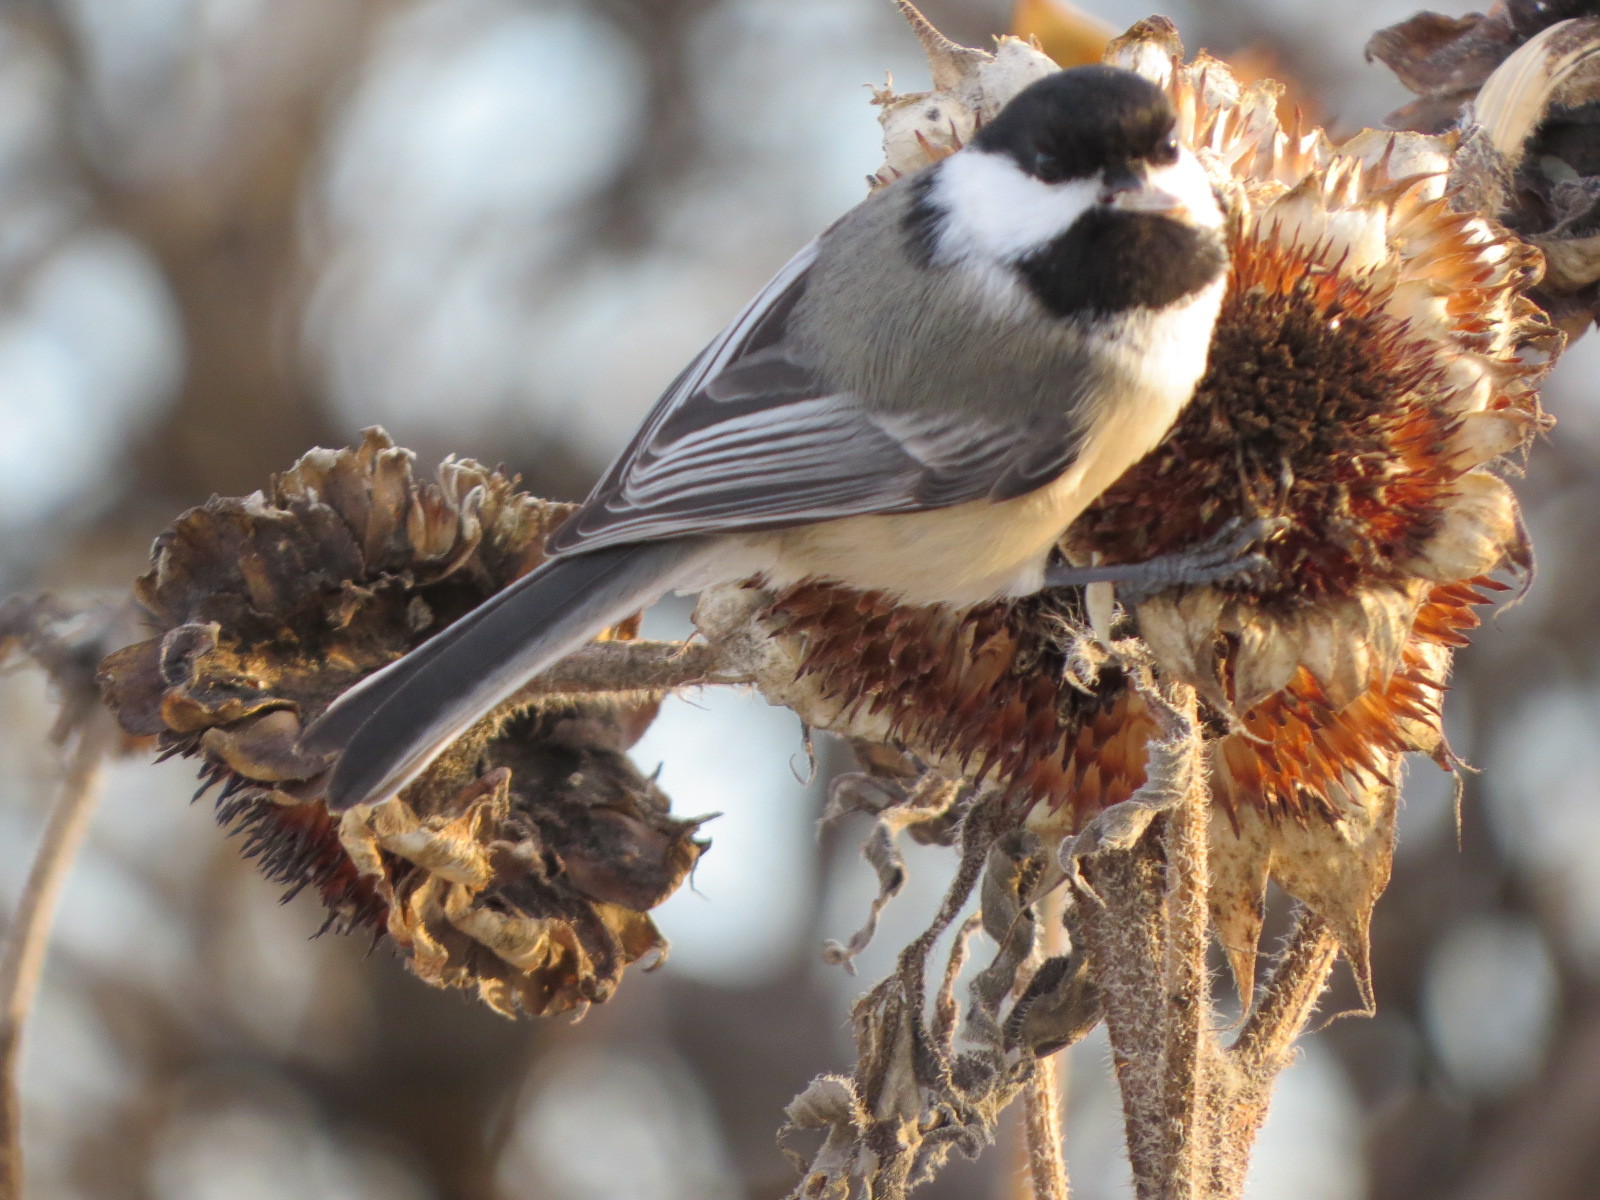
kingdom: Animalia
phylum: Chordata
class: Aves
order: Passeriformes
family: Paridae
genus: Poecile
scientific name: Poecile atricapillus
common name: Black-capped chickadee
